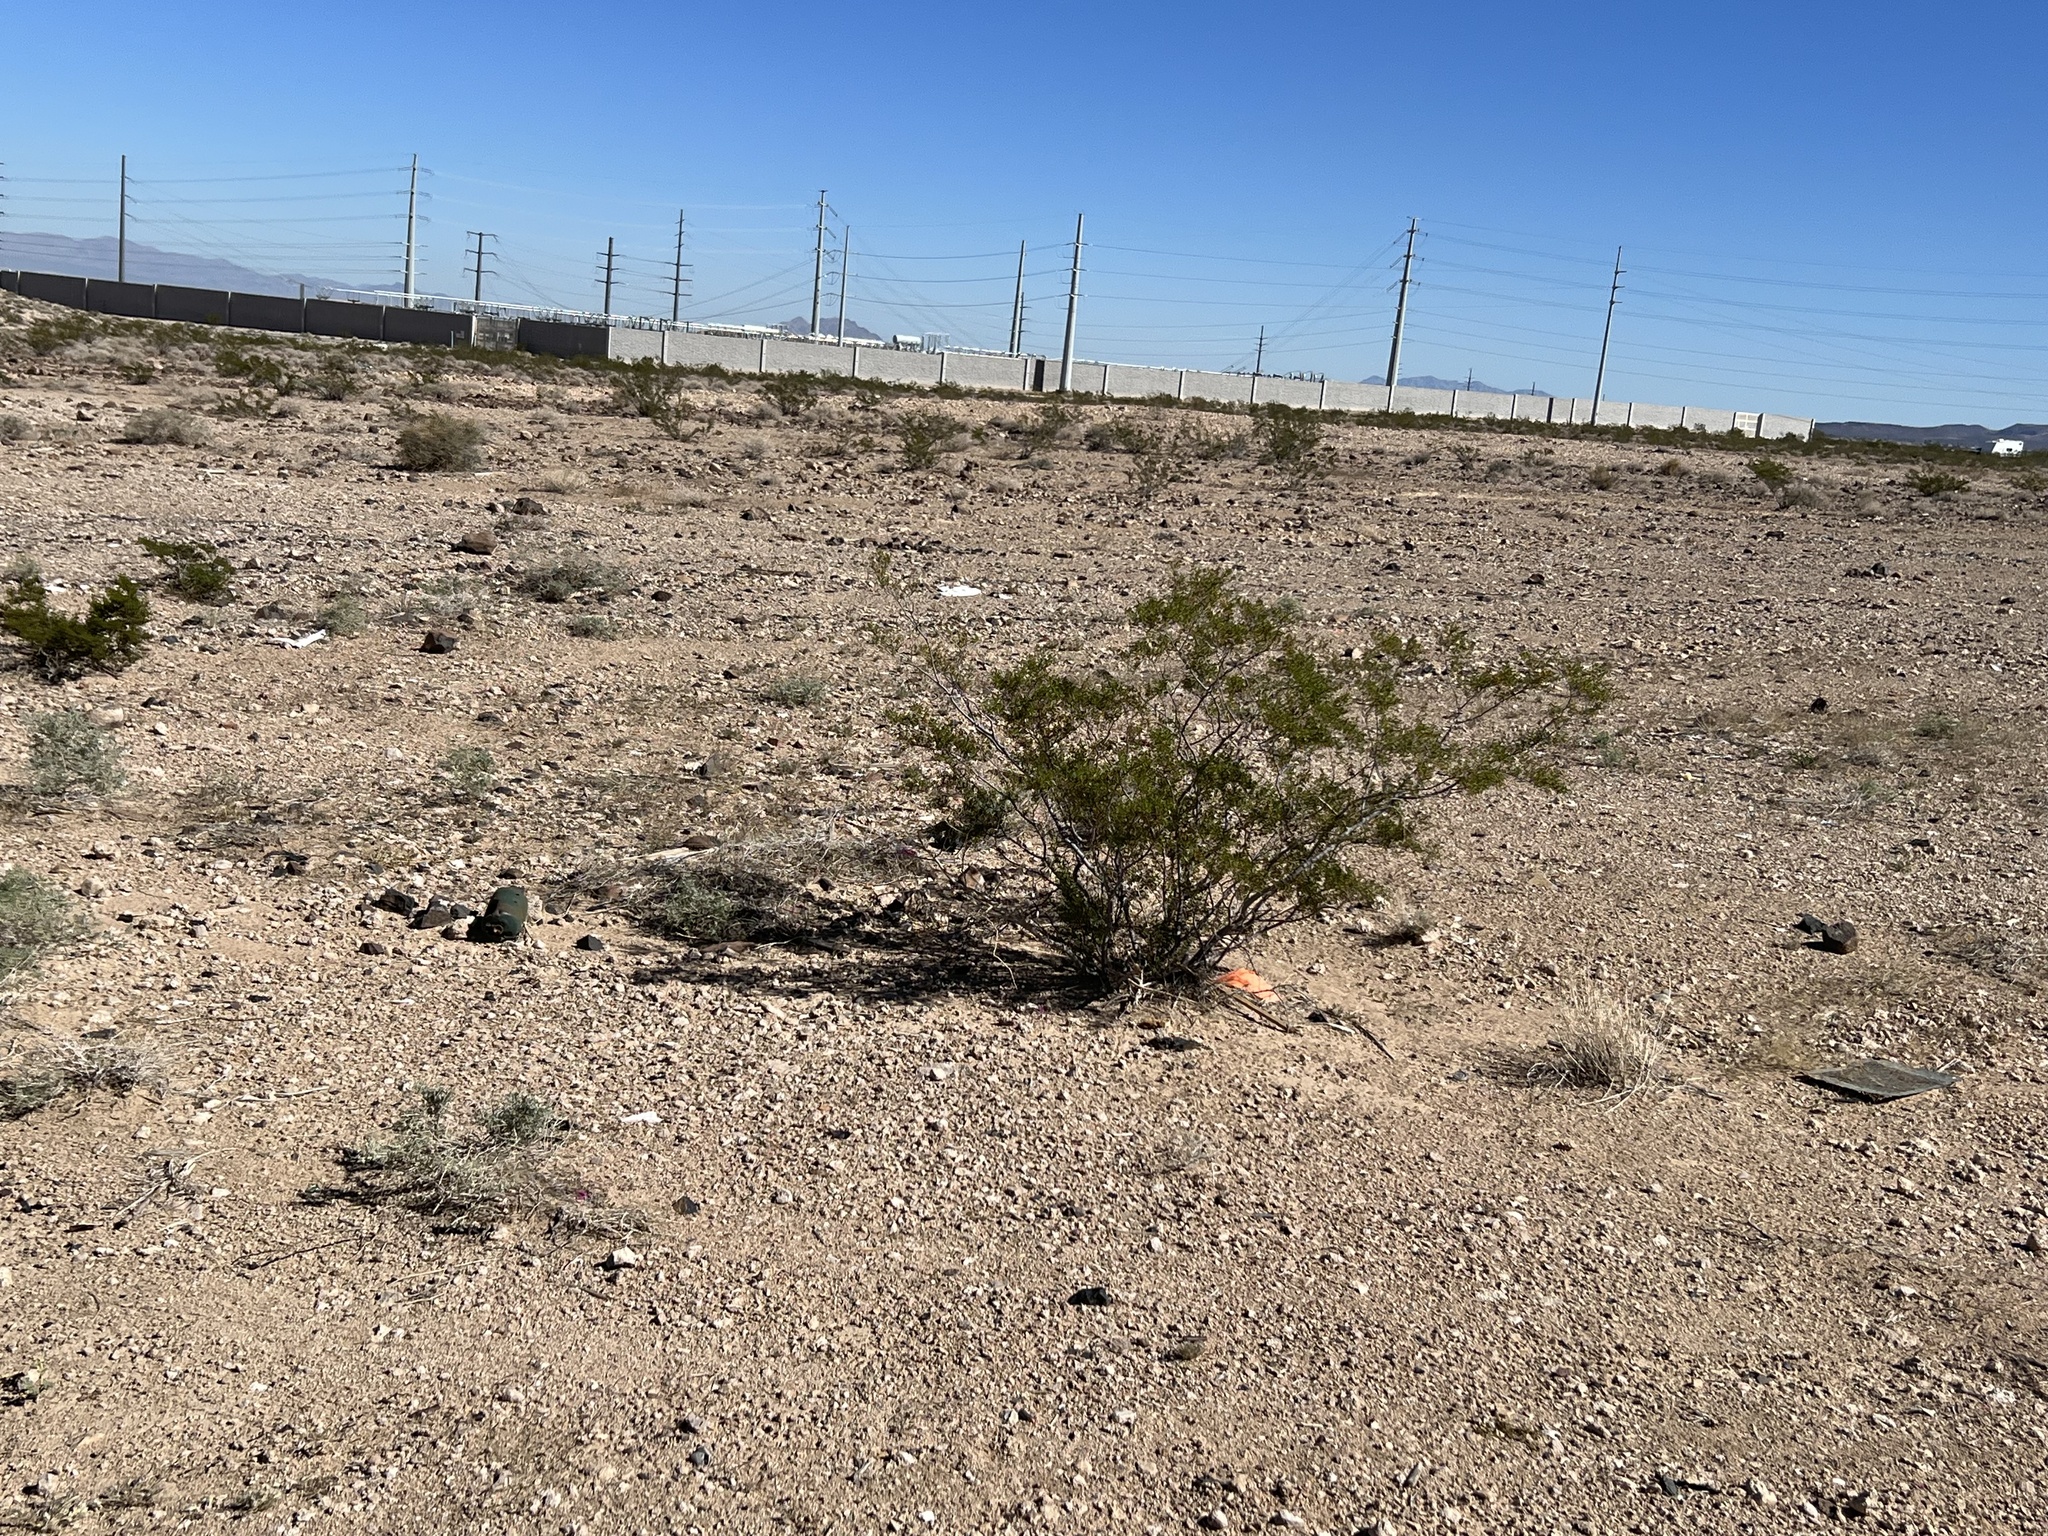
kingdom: Plantae
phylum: Tracheophyta
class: Magnoliopsida
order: Zygophyllales
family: Zygophyllaceae
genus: Larrea
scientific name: Larrea tridentata
